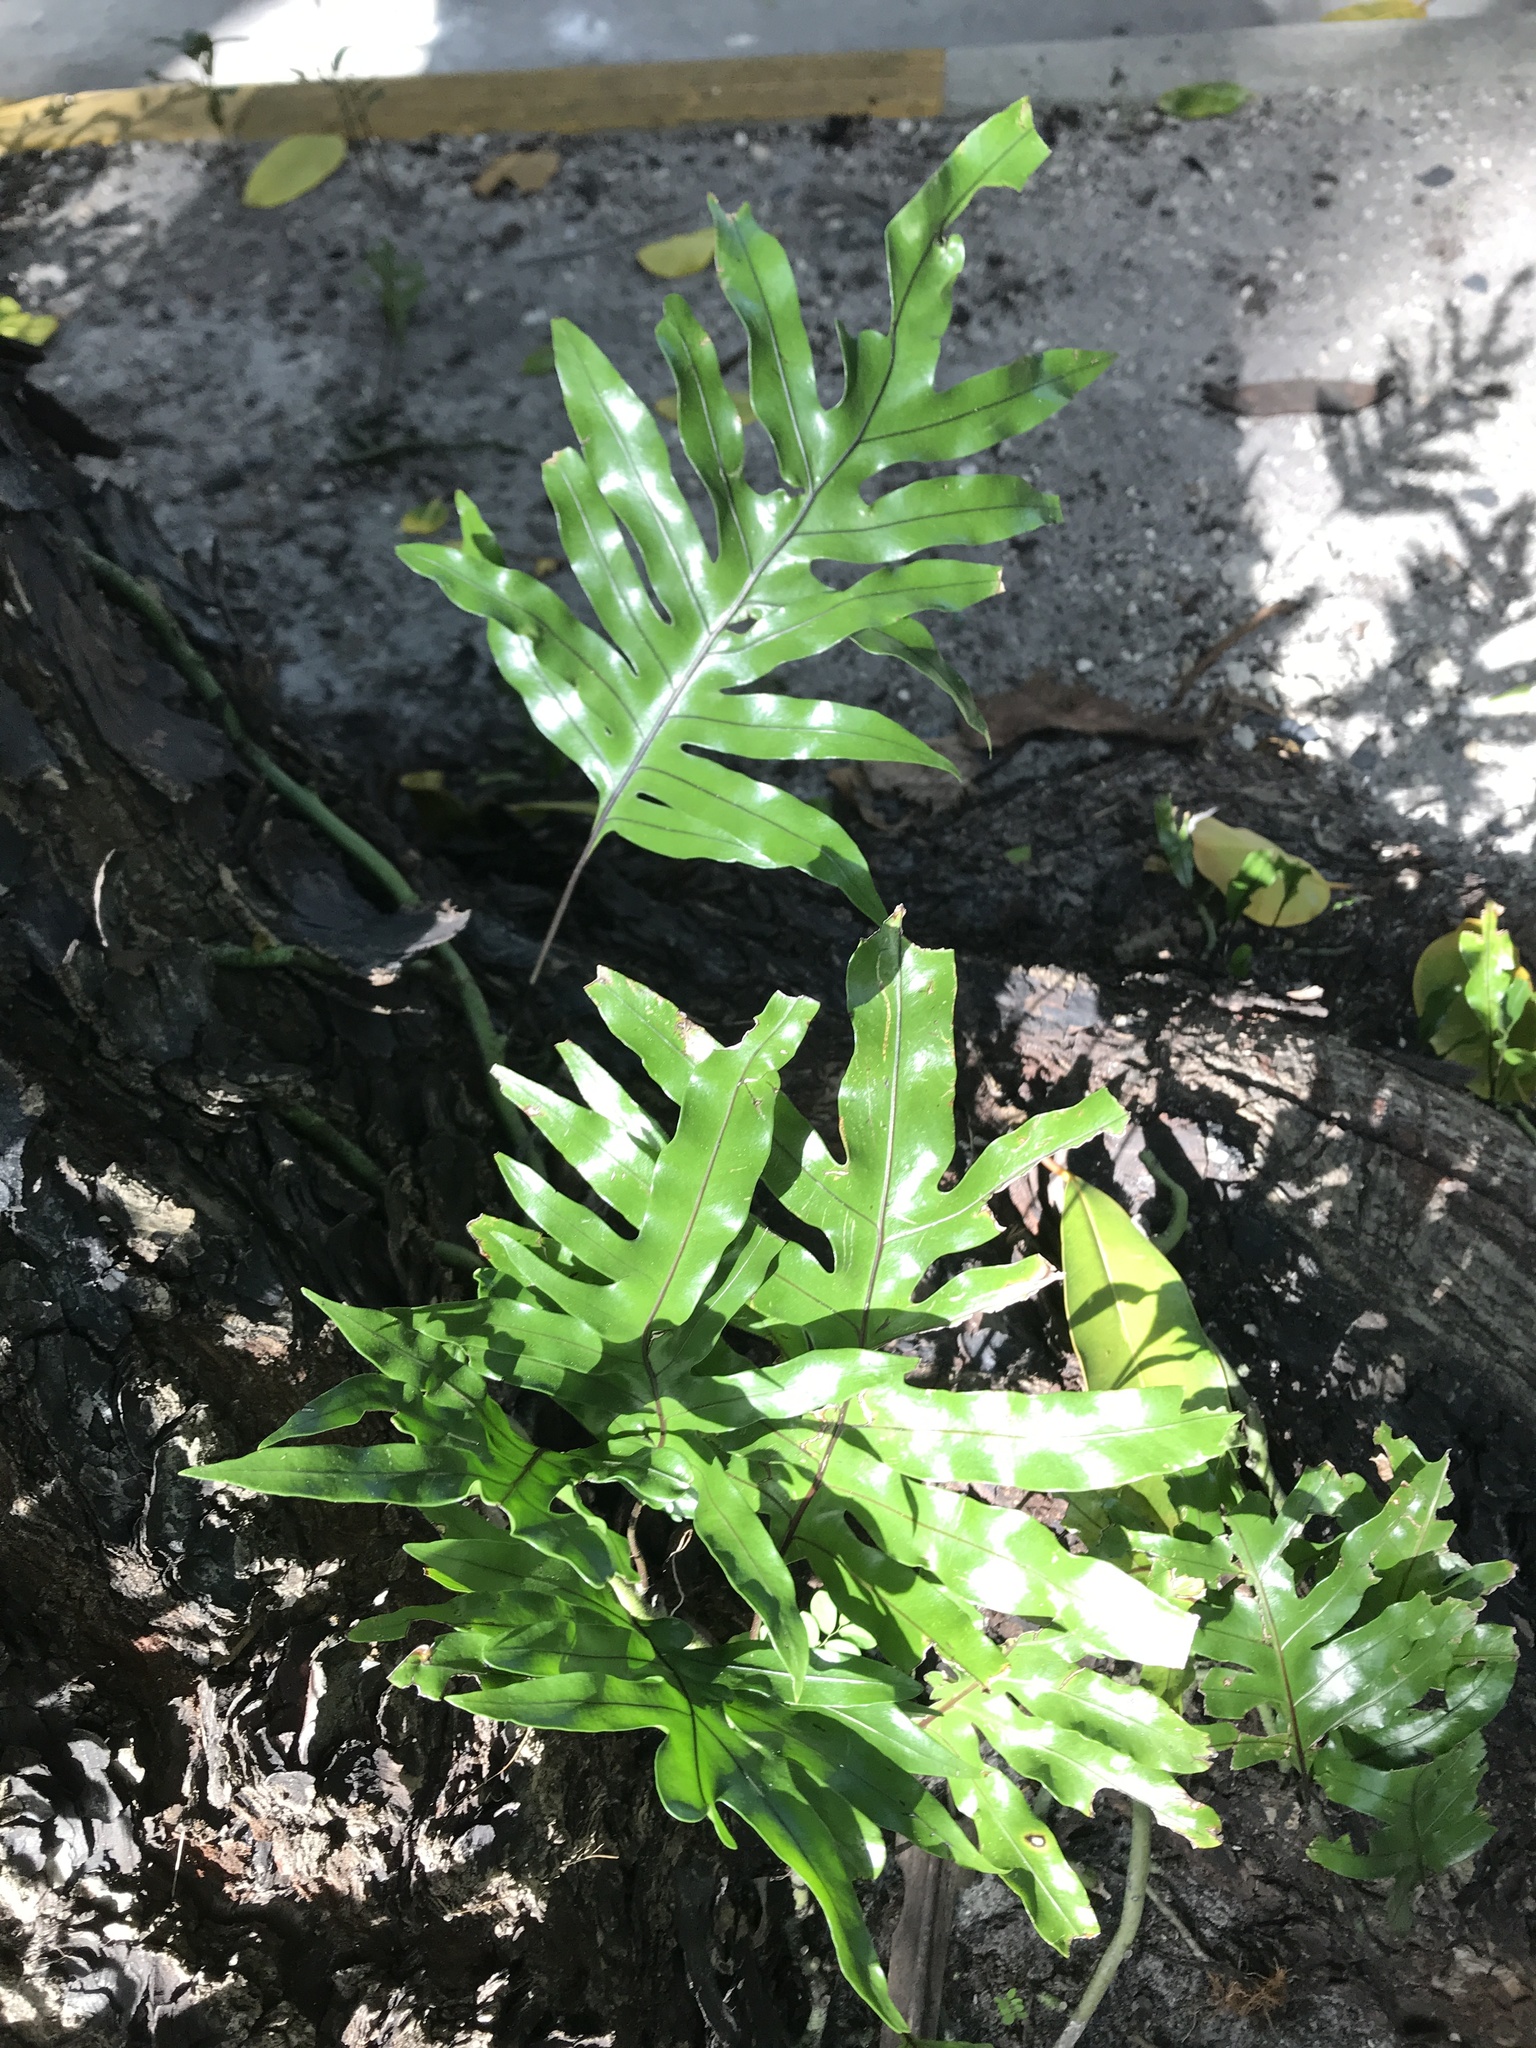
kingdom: Plantae
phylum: Tracheophyta
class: Polypodiopsida
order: Polypodiales
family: Polypodiaceae
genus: Microsorum
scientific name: Microsorum grossum
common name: Musk fern
